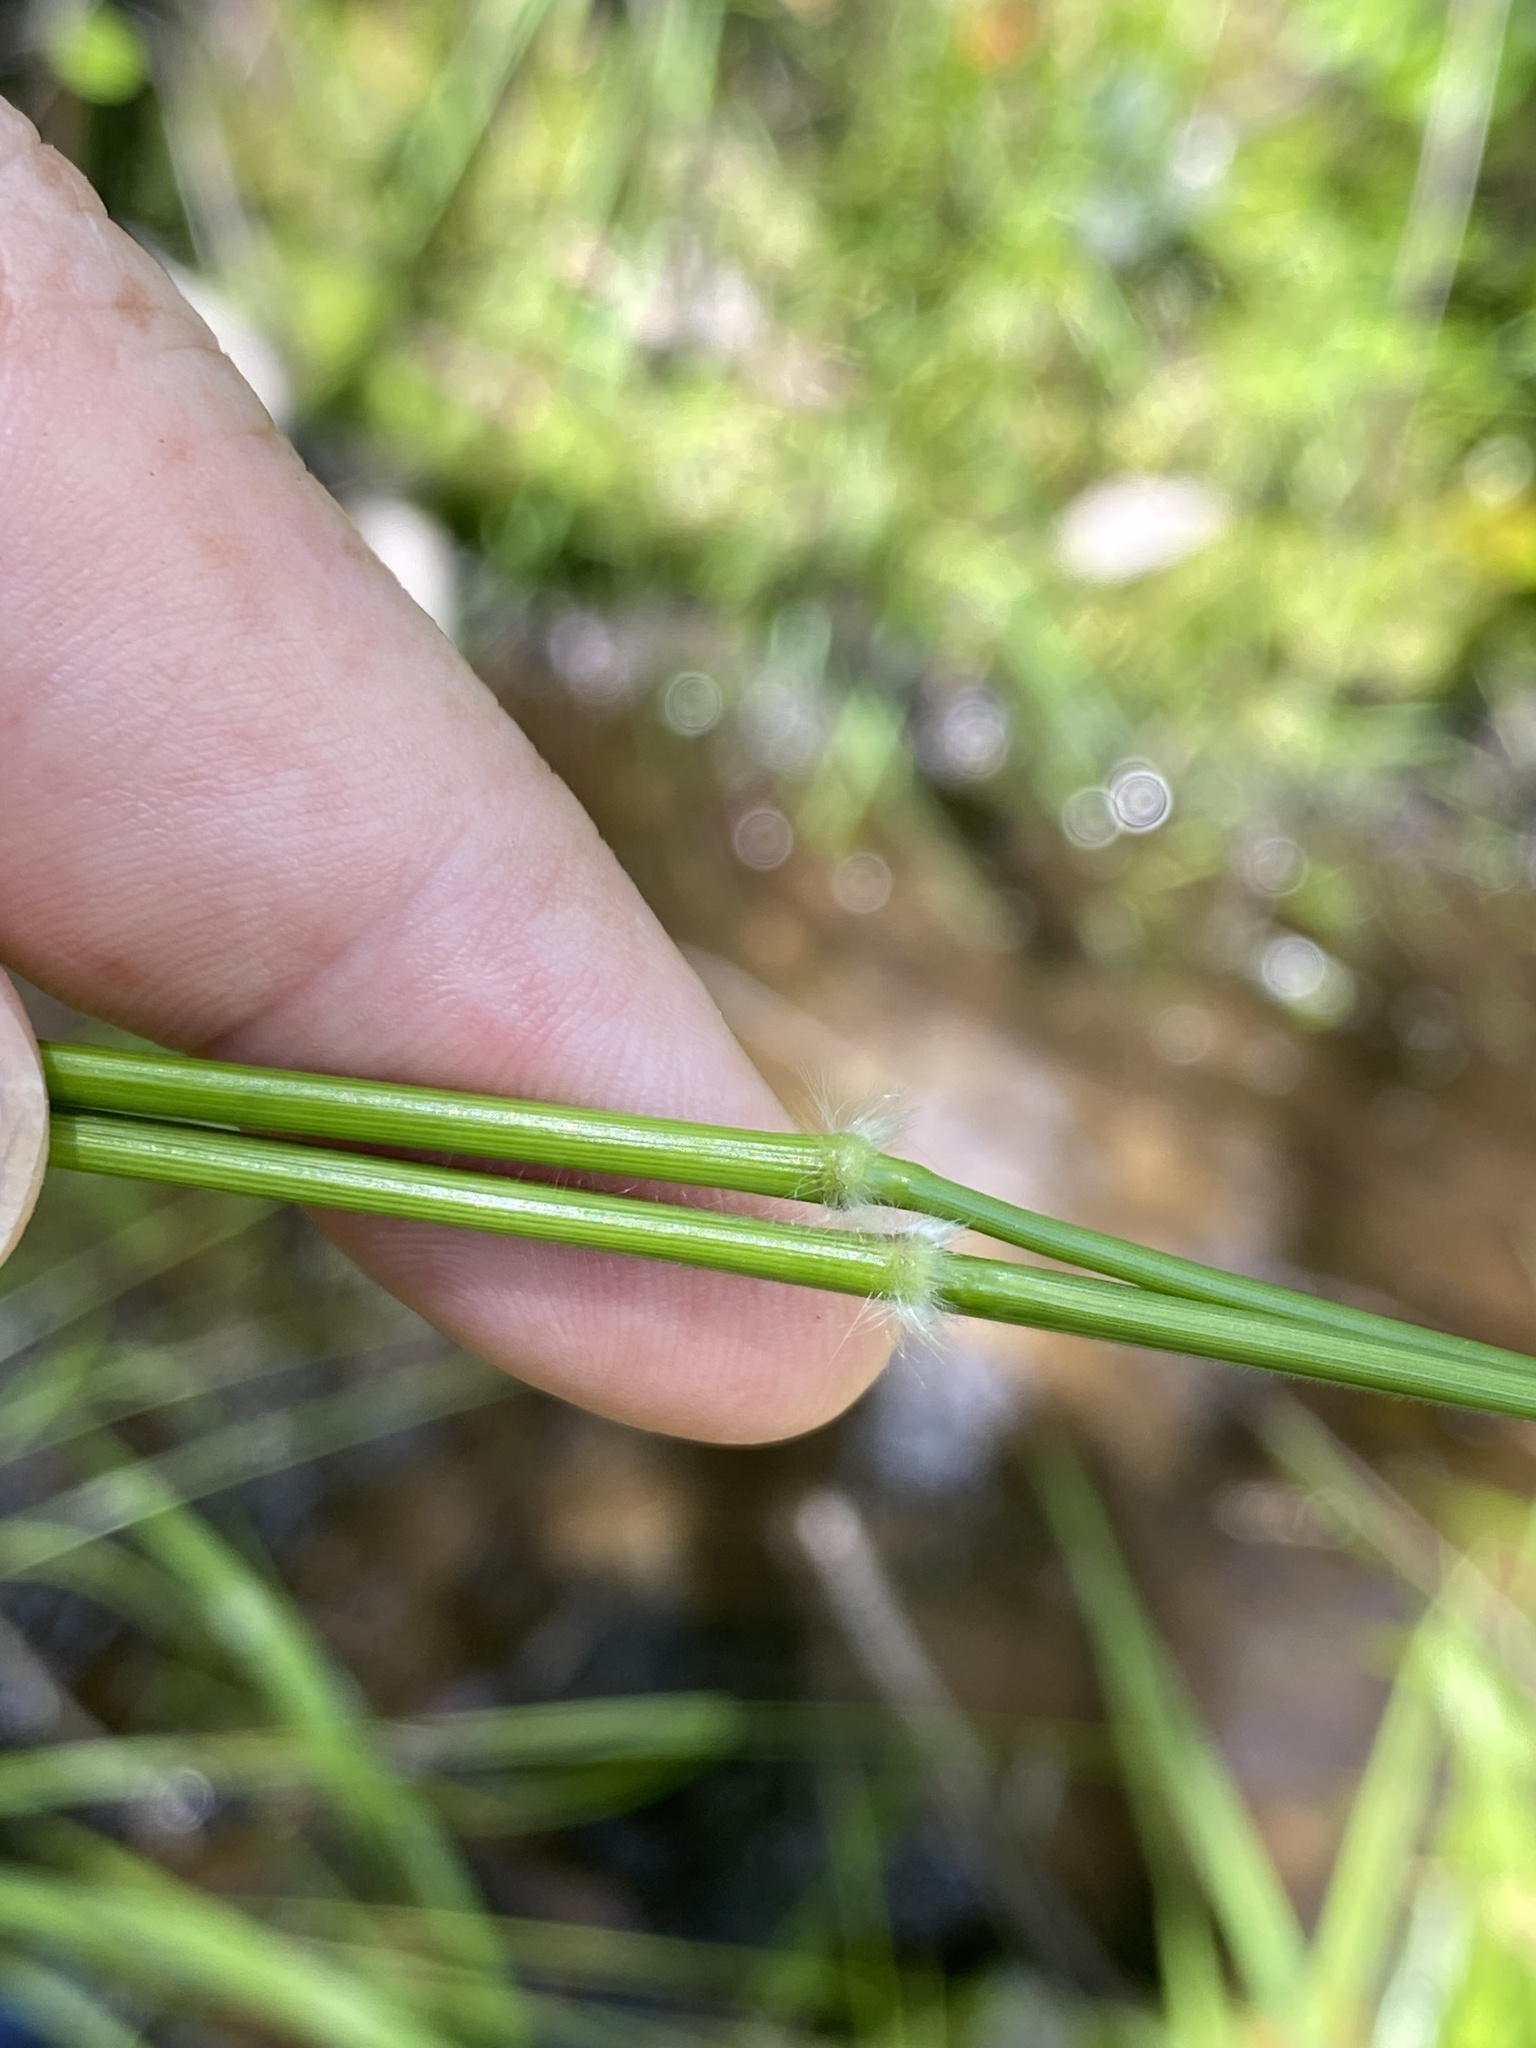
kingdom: Plantae
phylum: Tracheophyta
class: Liliopsida
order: Poales
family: Poaceae
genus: Dichanthelium
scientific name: Dichanthelium microcarpon
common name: Small-fruited witchgrass
